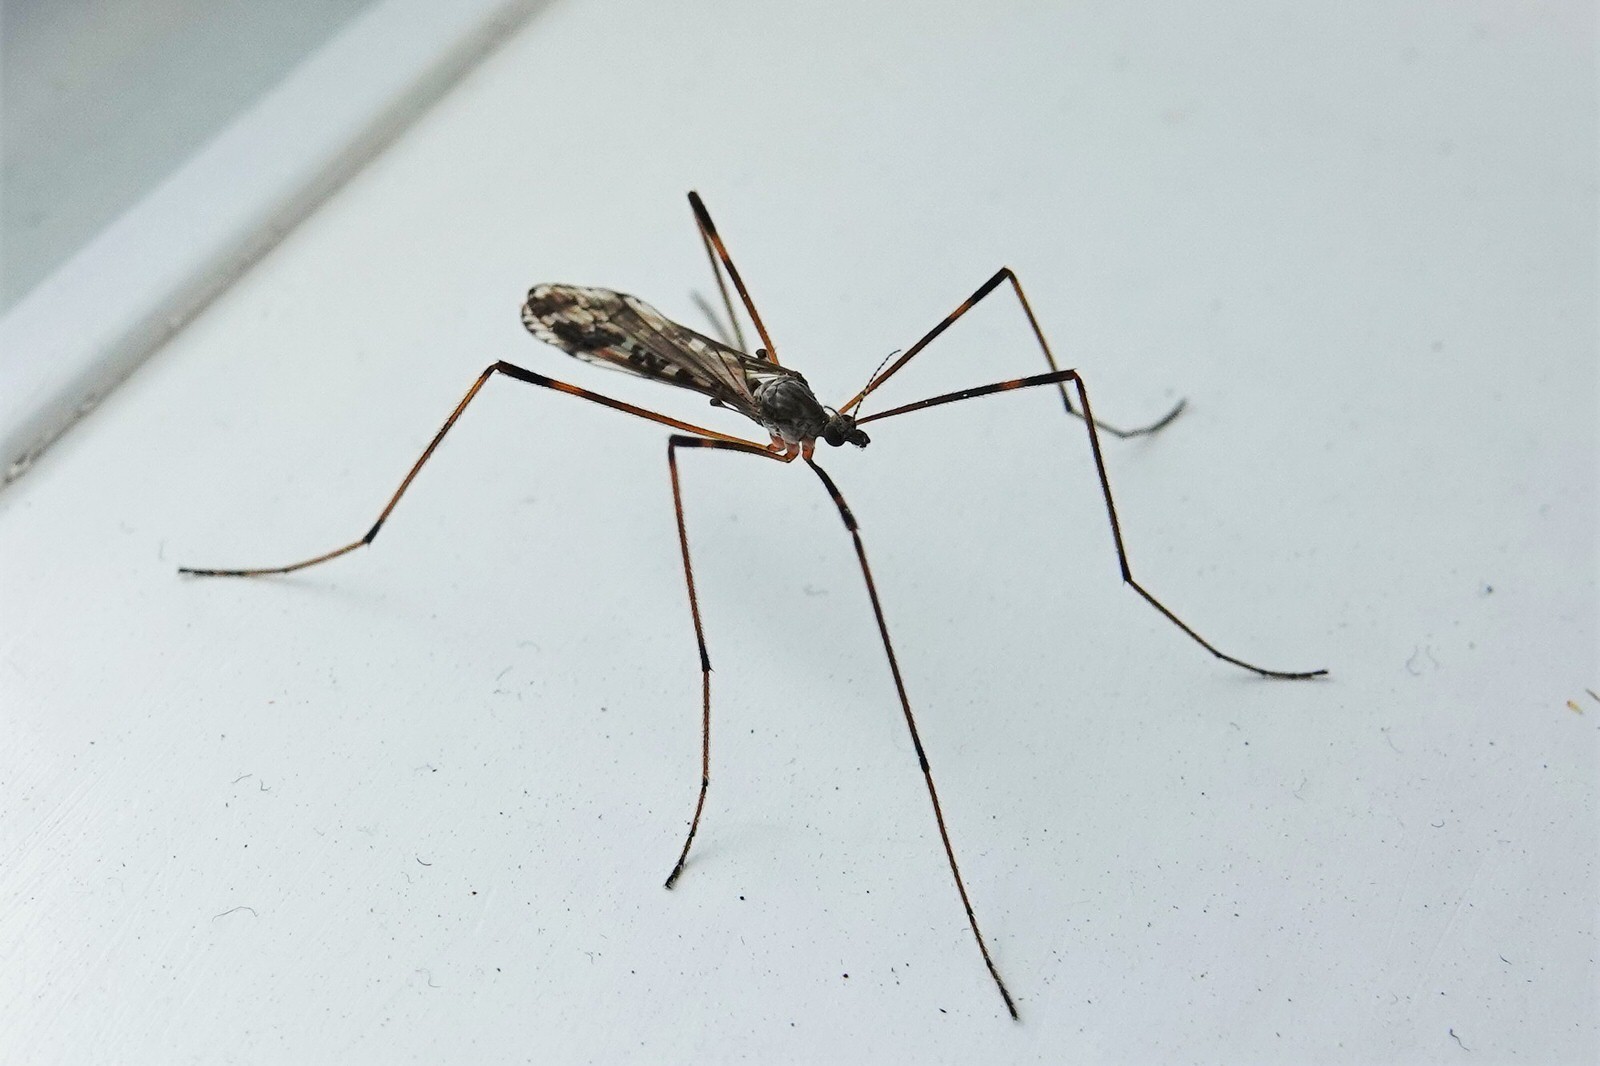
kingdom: Animalia
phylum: Arthropoda
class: Insecta
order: Diptera
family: Limoniidae
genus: Paralimnophila
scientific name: Paralimnophila skusei
